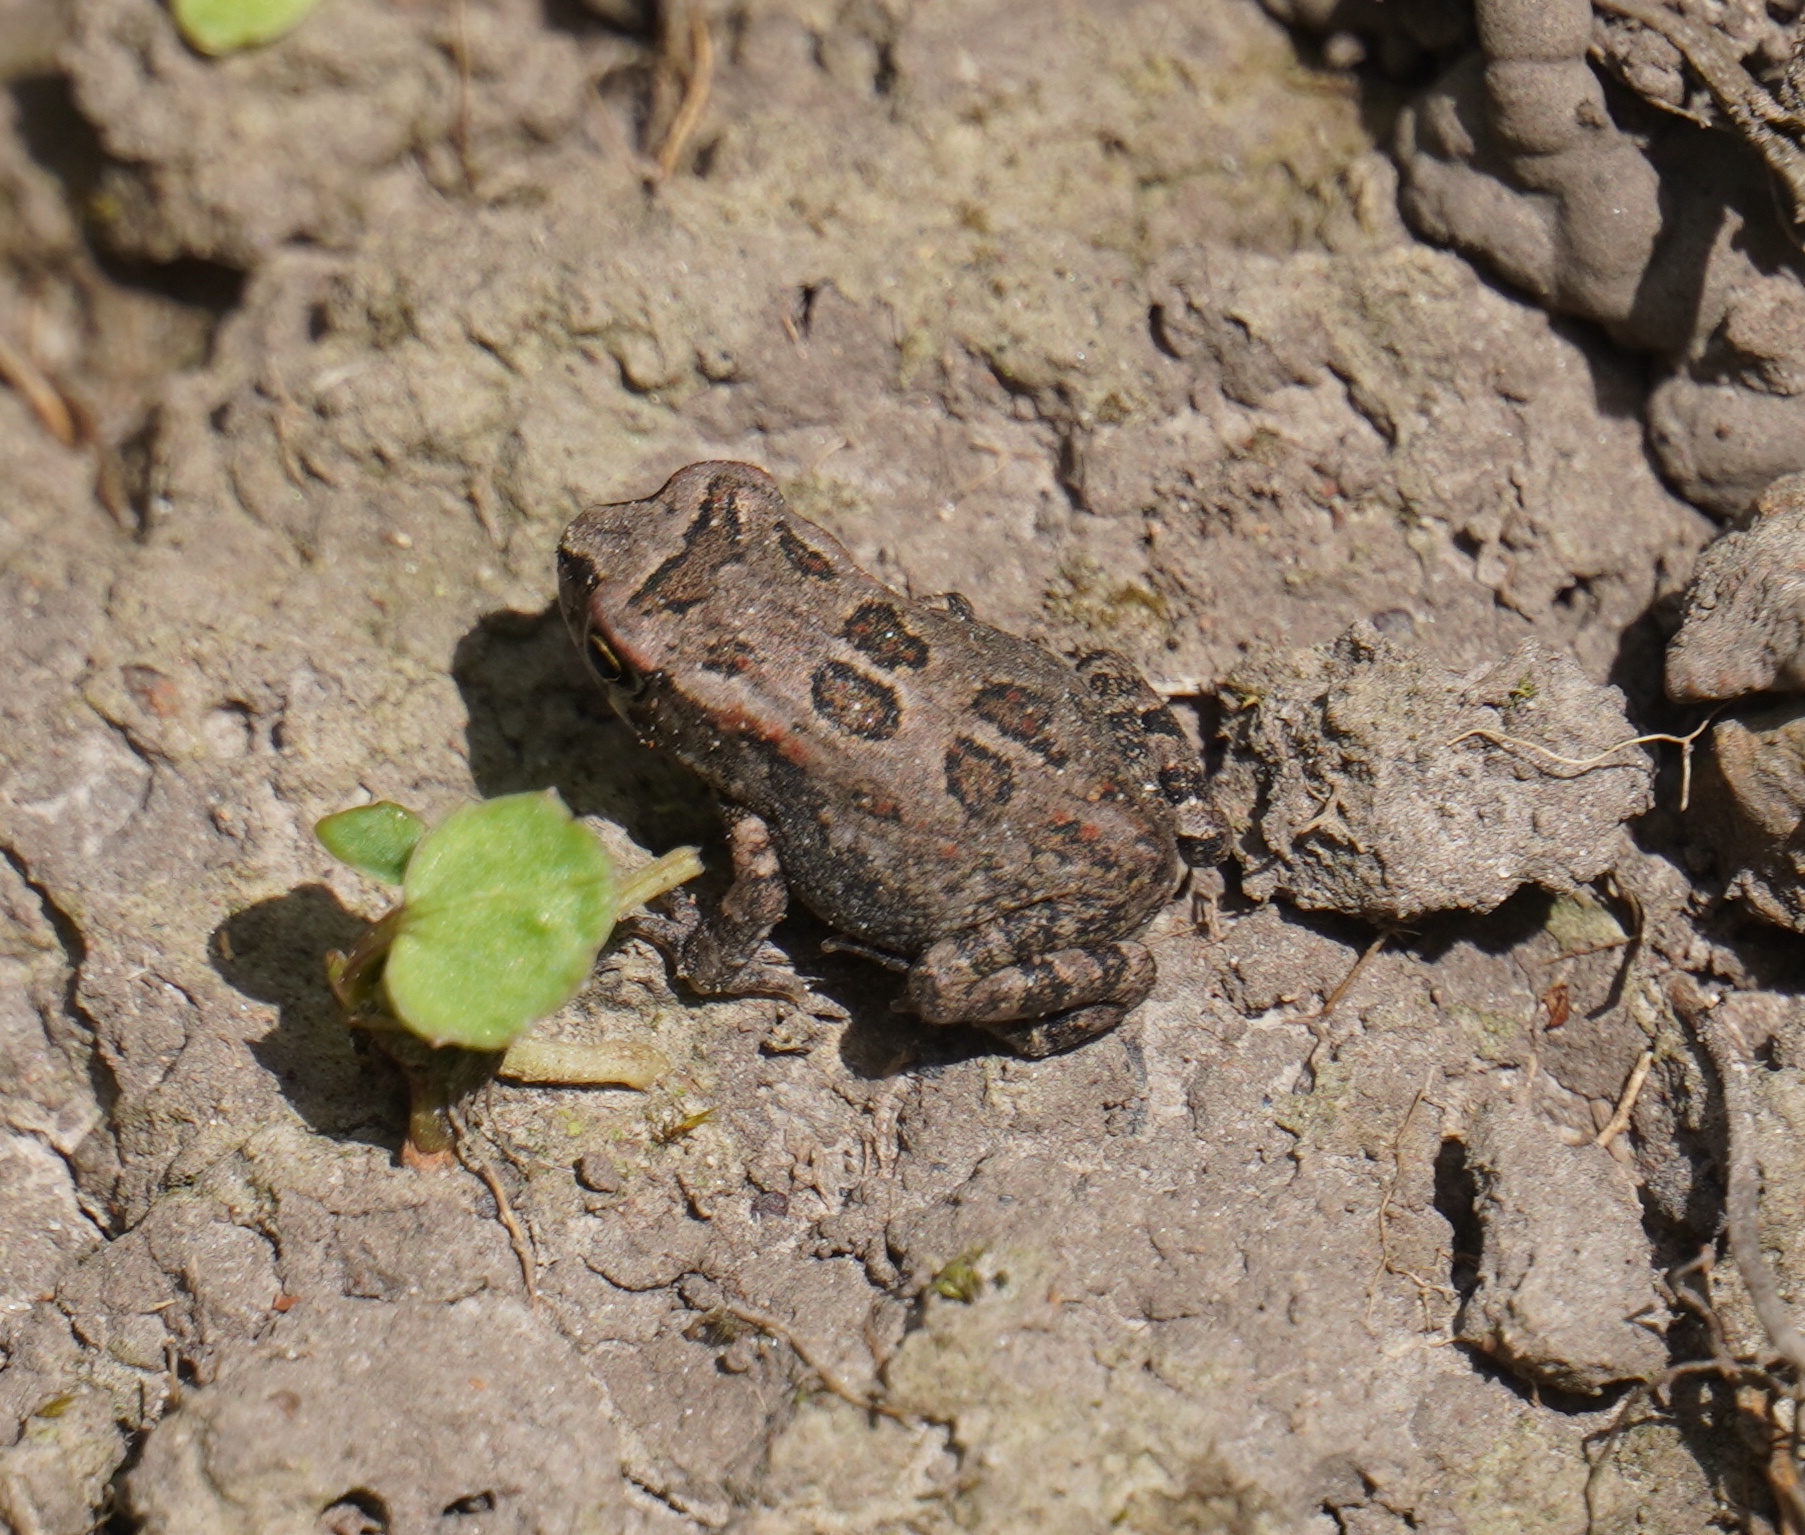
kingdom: Animalia
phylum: Chordata
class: Amphibia
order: Anura
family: Bufonidae
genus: Sclerophrys
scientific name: Sclerophrys capensis
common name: Ranger’s toad
